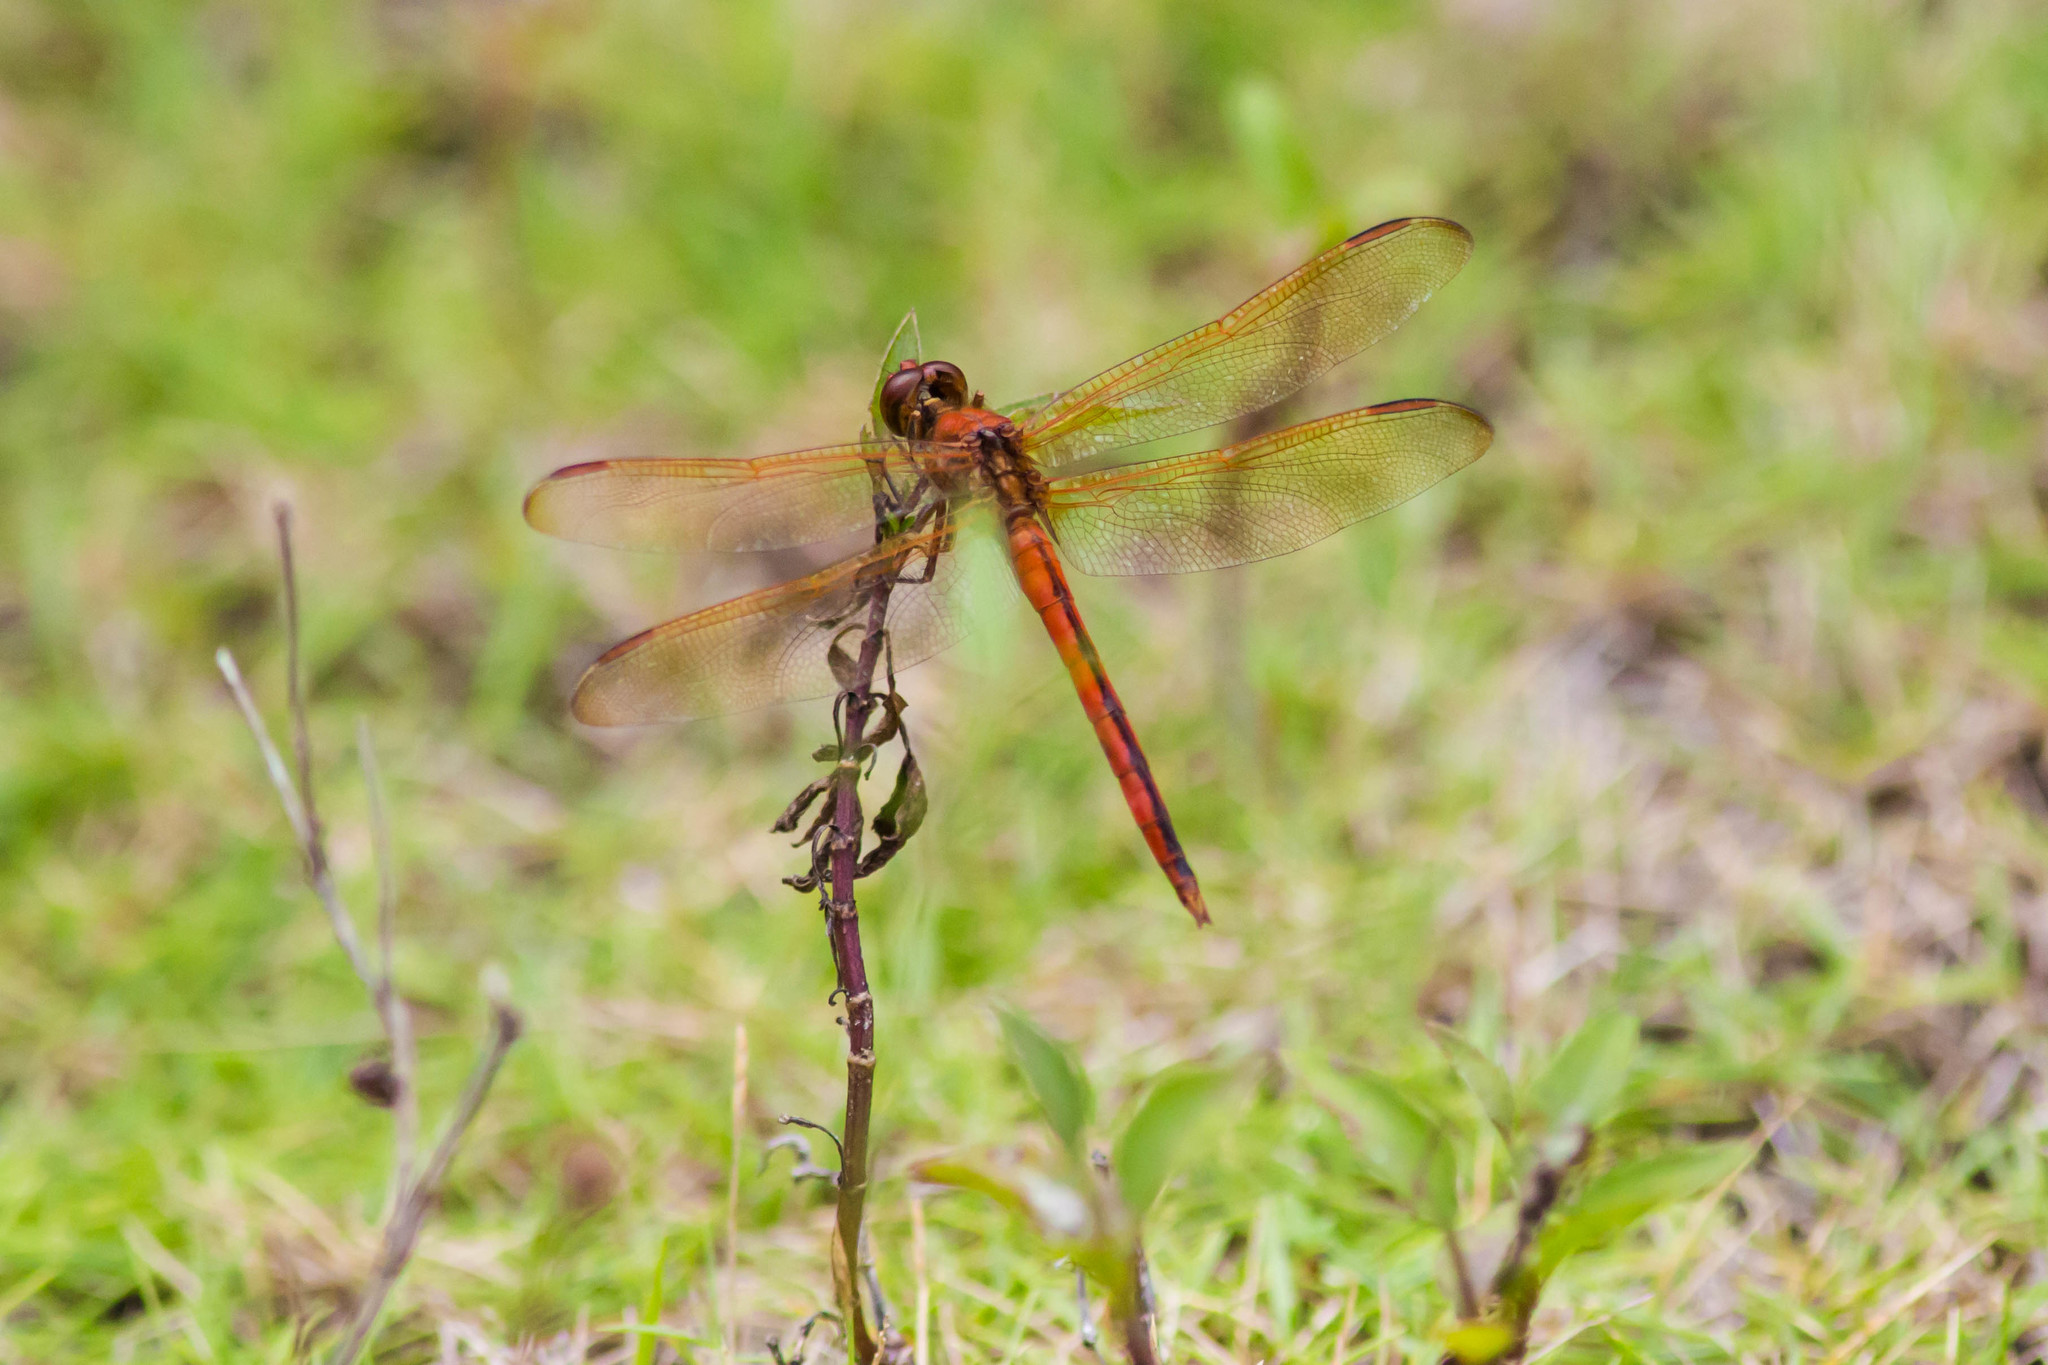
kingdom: Animalia
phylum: Arthropoda
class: Insecta
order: Odonata
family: Libellulidae
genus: Libellula
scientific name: Libellula needhami
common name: Needham's skimmer
